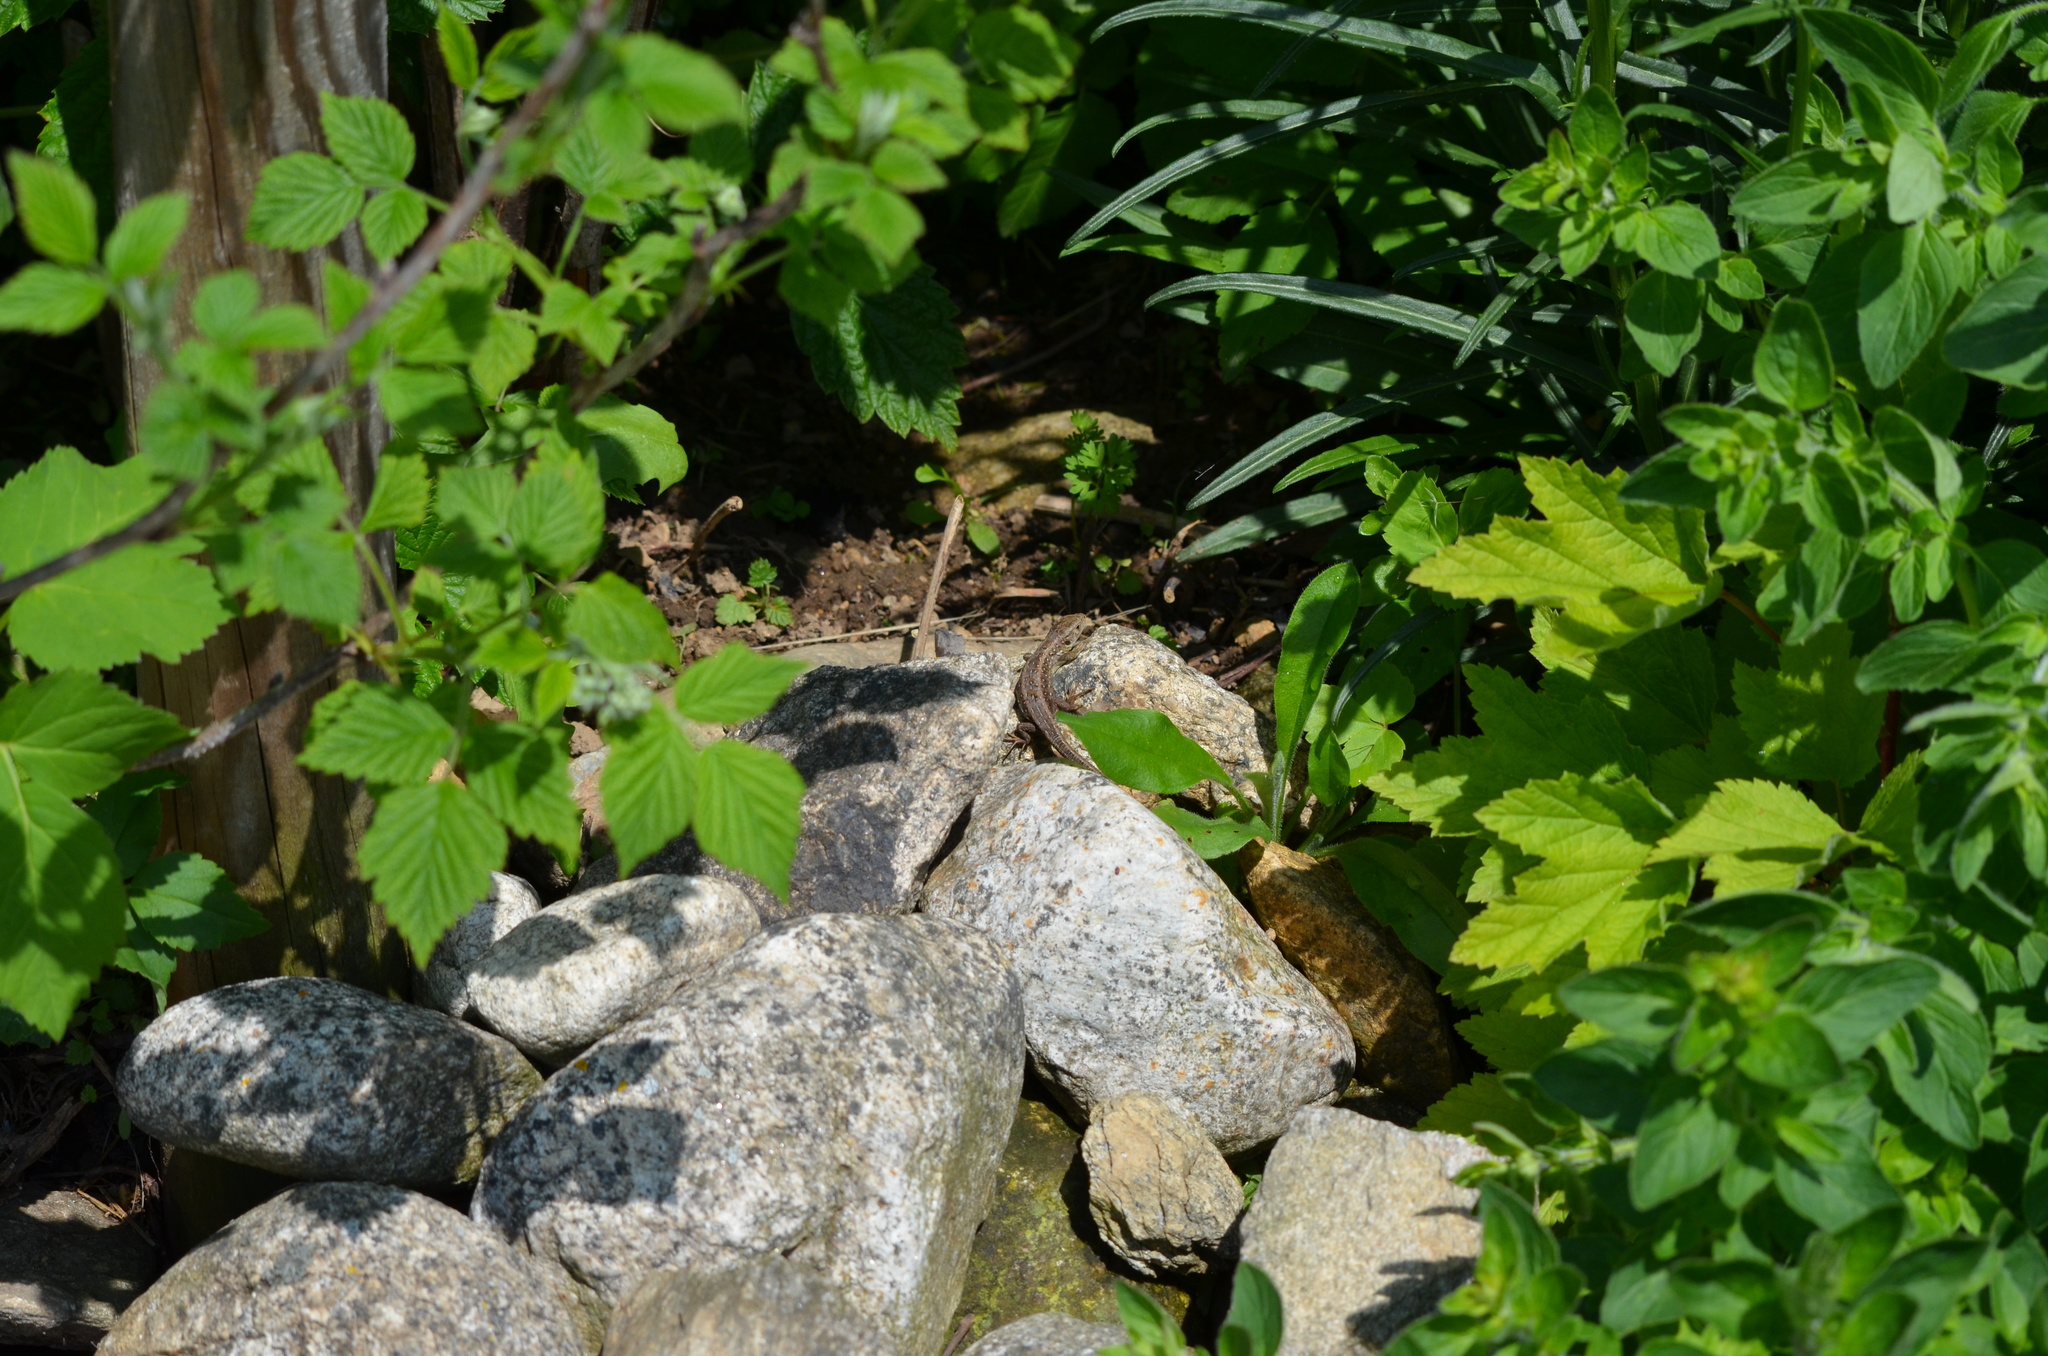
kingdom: Animalia
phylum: Chordata
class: Squamata
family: Lacertidae
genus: Lacerta
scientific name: Lacerta agilis
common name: Sand lizard
